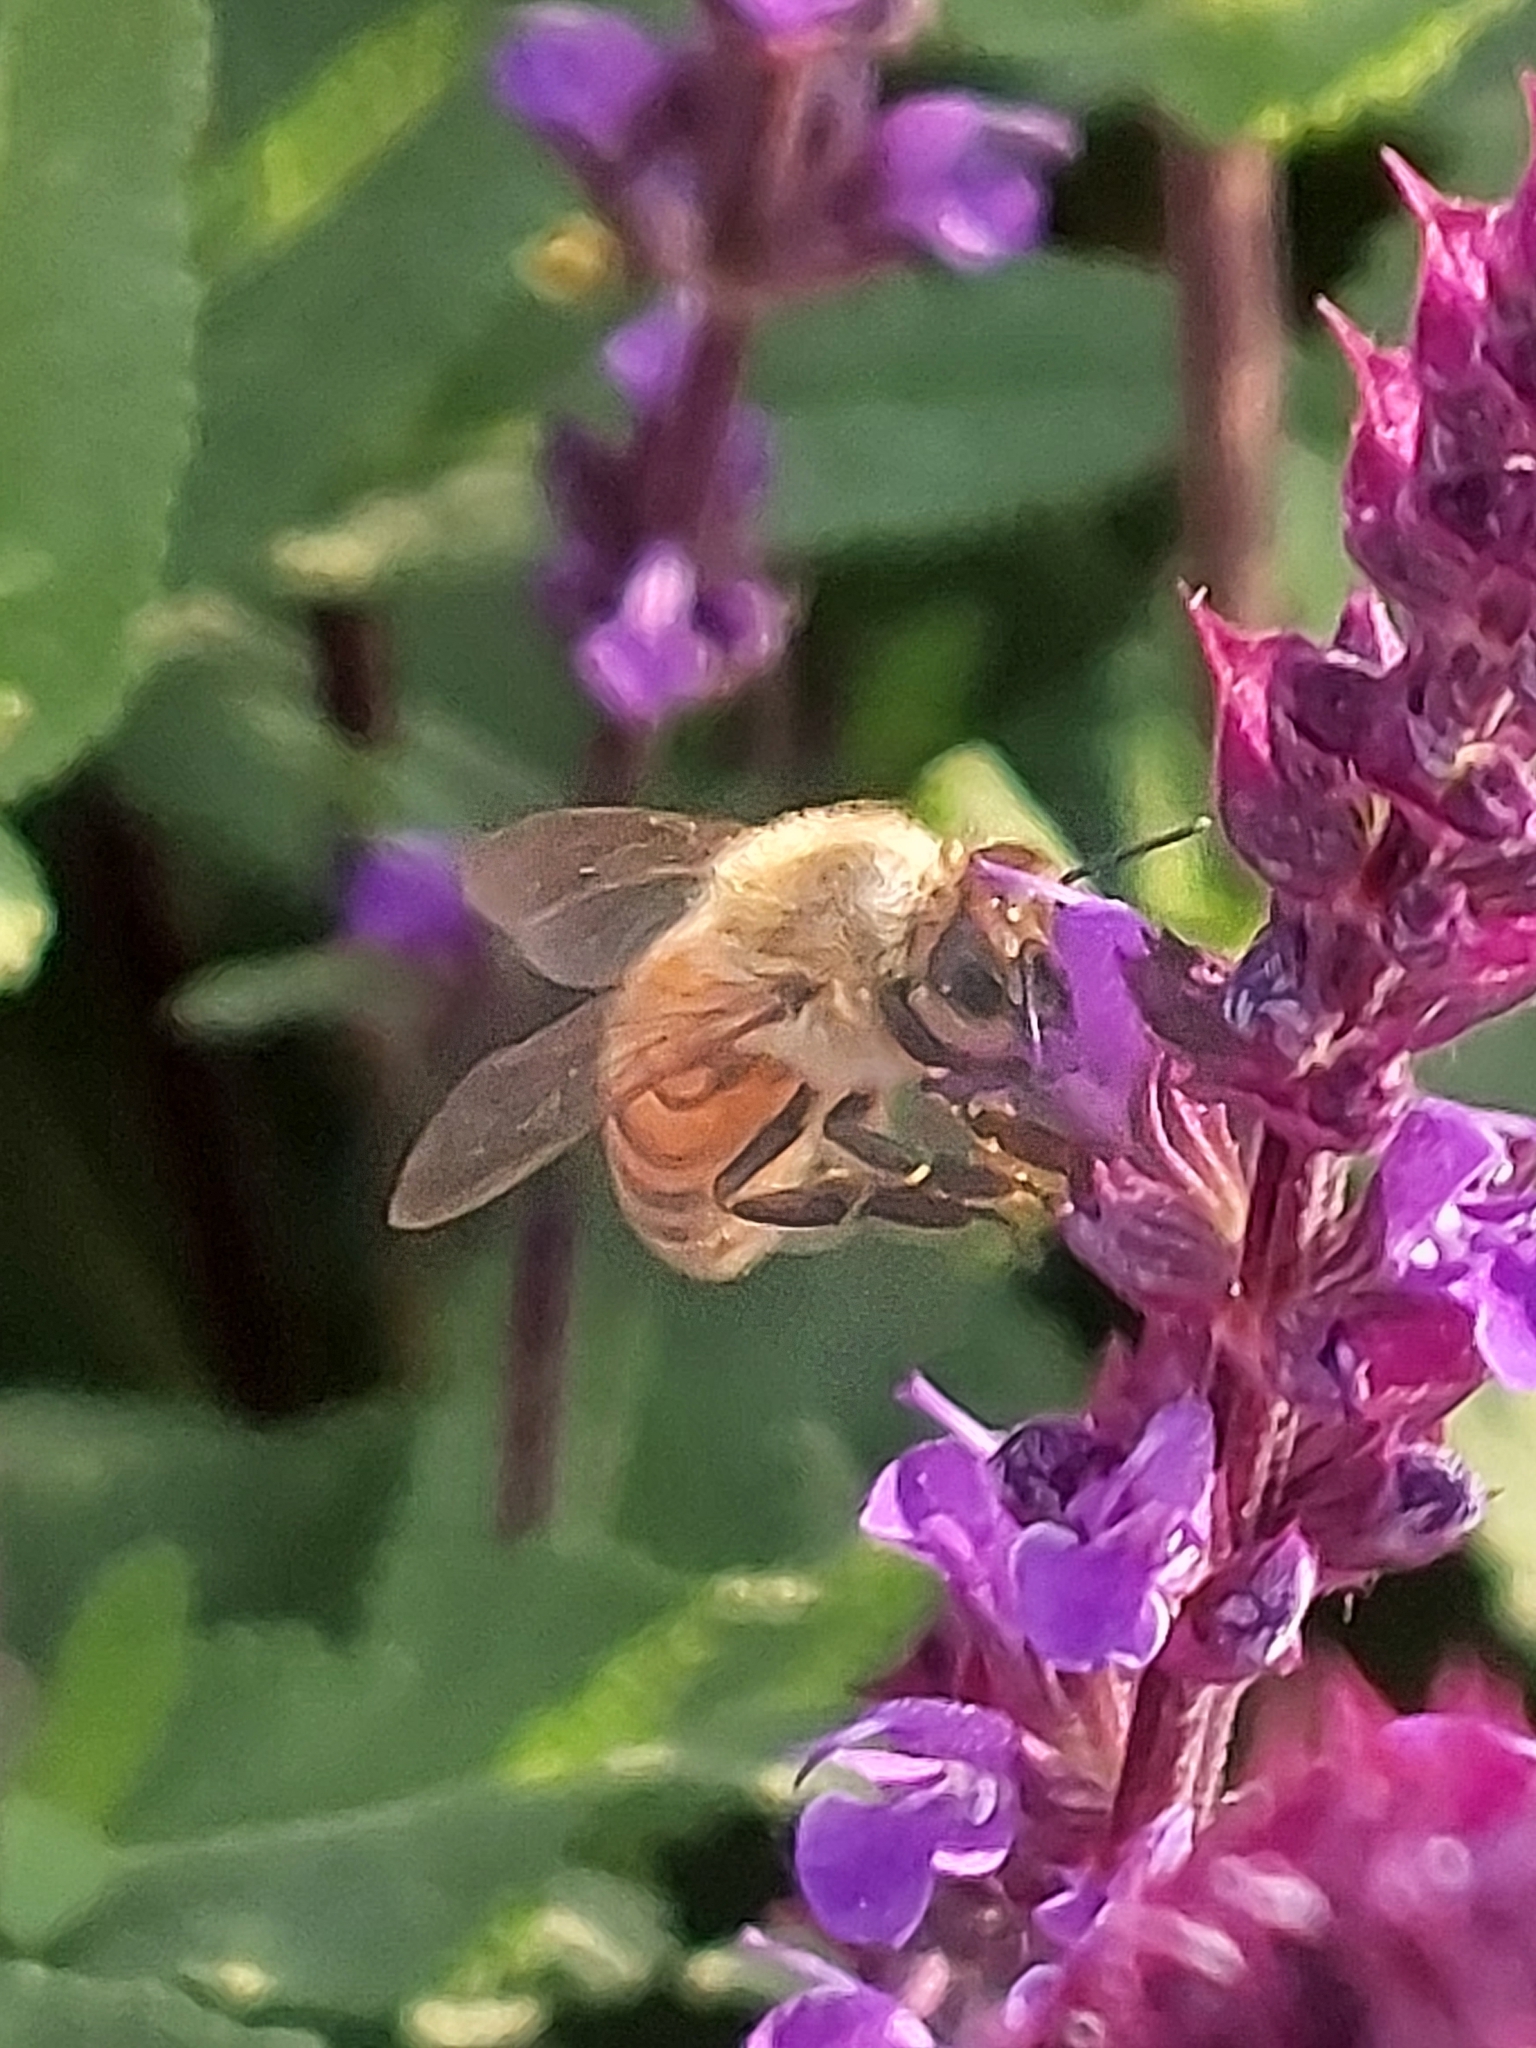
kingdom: Animalia
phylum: Arthropoda
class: Insecta
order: Hymenoptera
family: Apidae
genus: Apis
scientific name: Apis mellifera
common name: Honey bee
